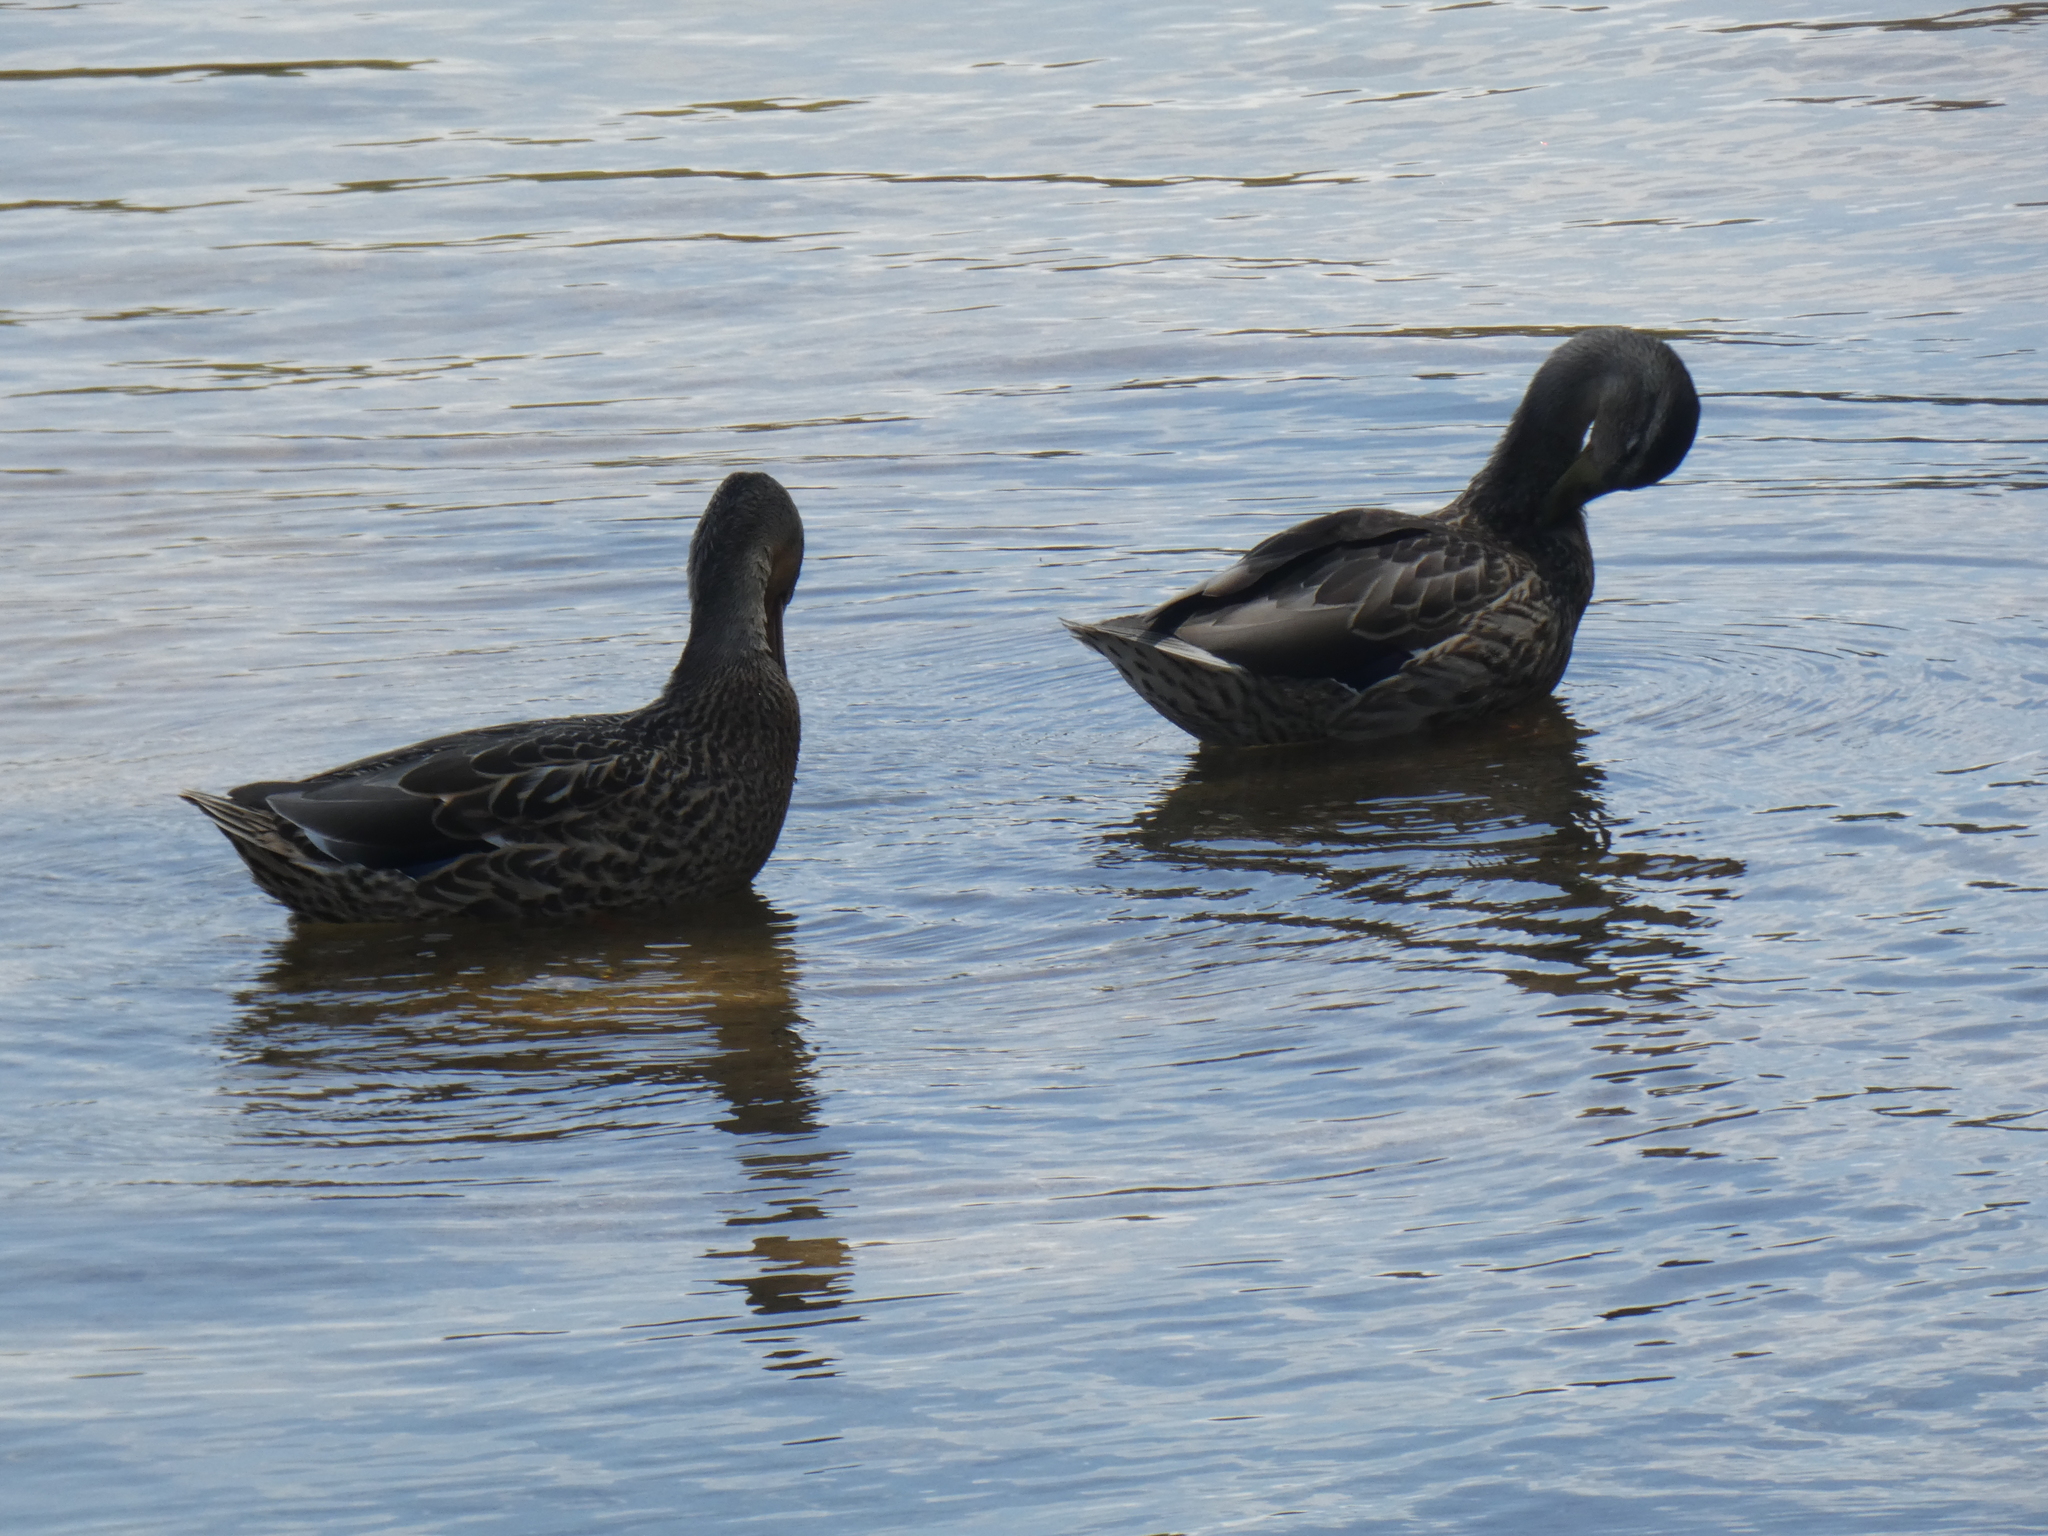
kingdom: Animalia
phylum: Chordata
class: Aves
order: Anseriformes
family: Anatidae
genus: Anas
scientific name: Anas platyrhynchos
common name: Mallard
